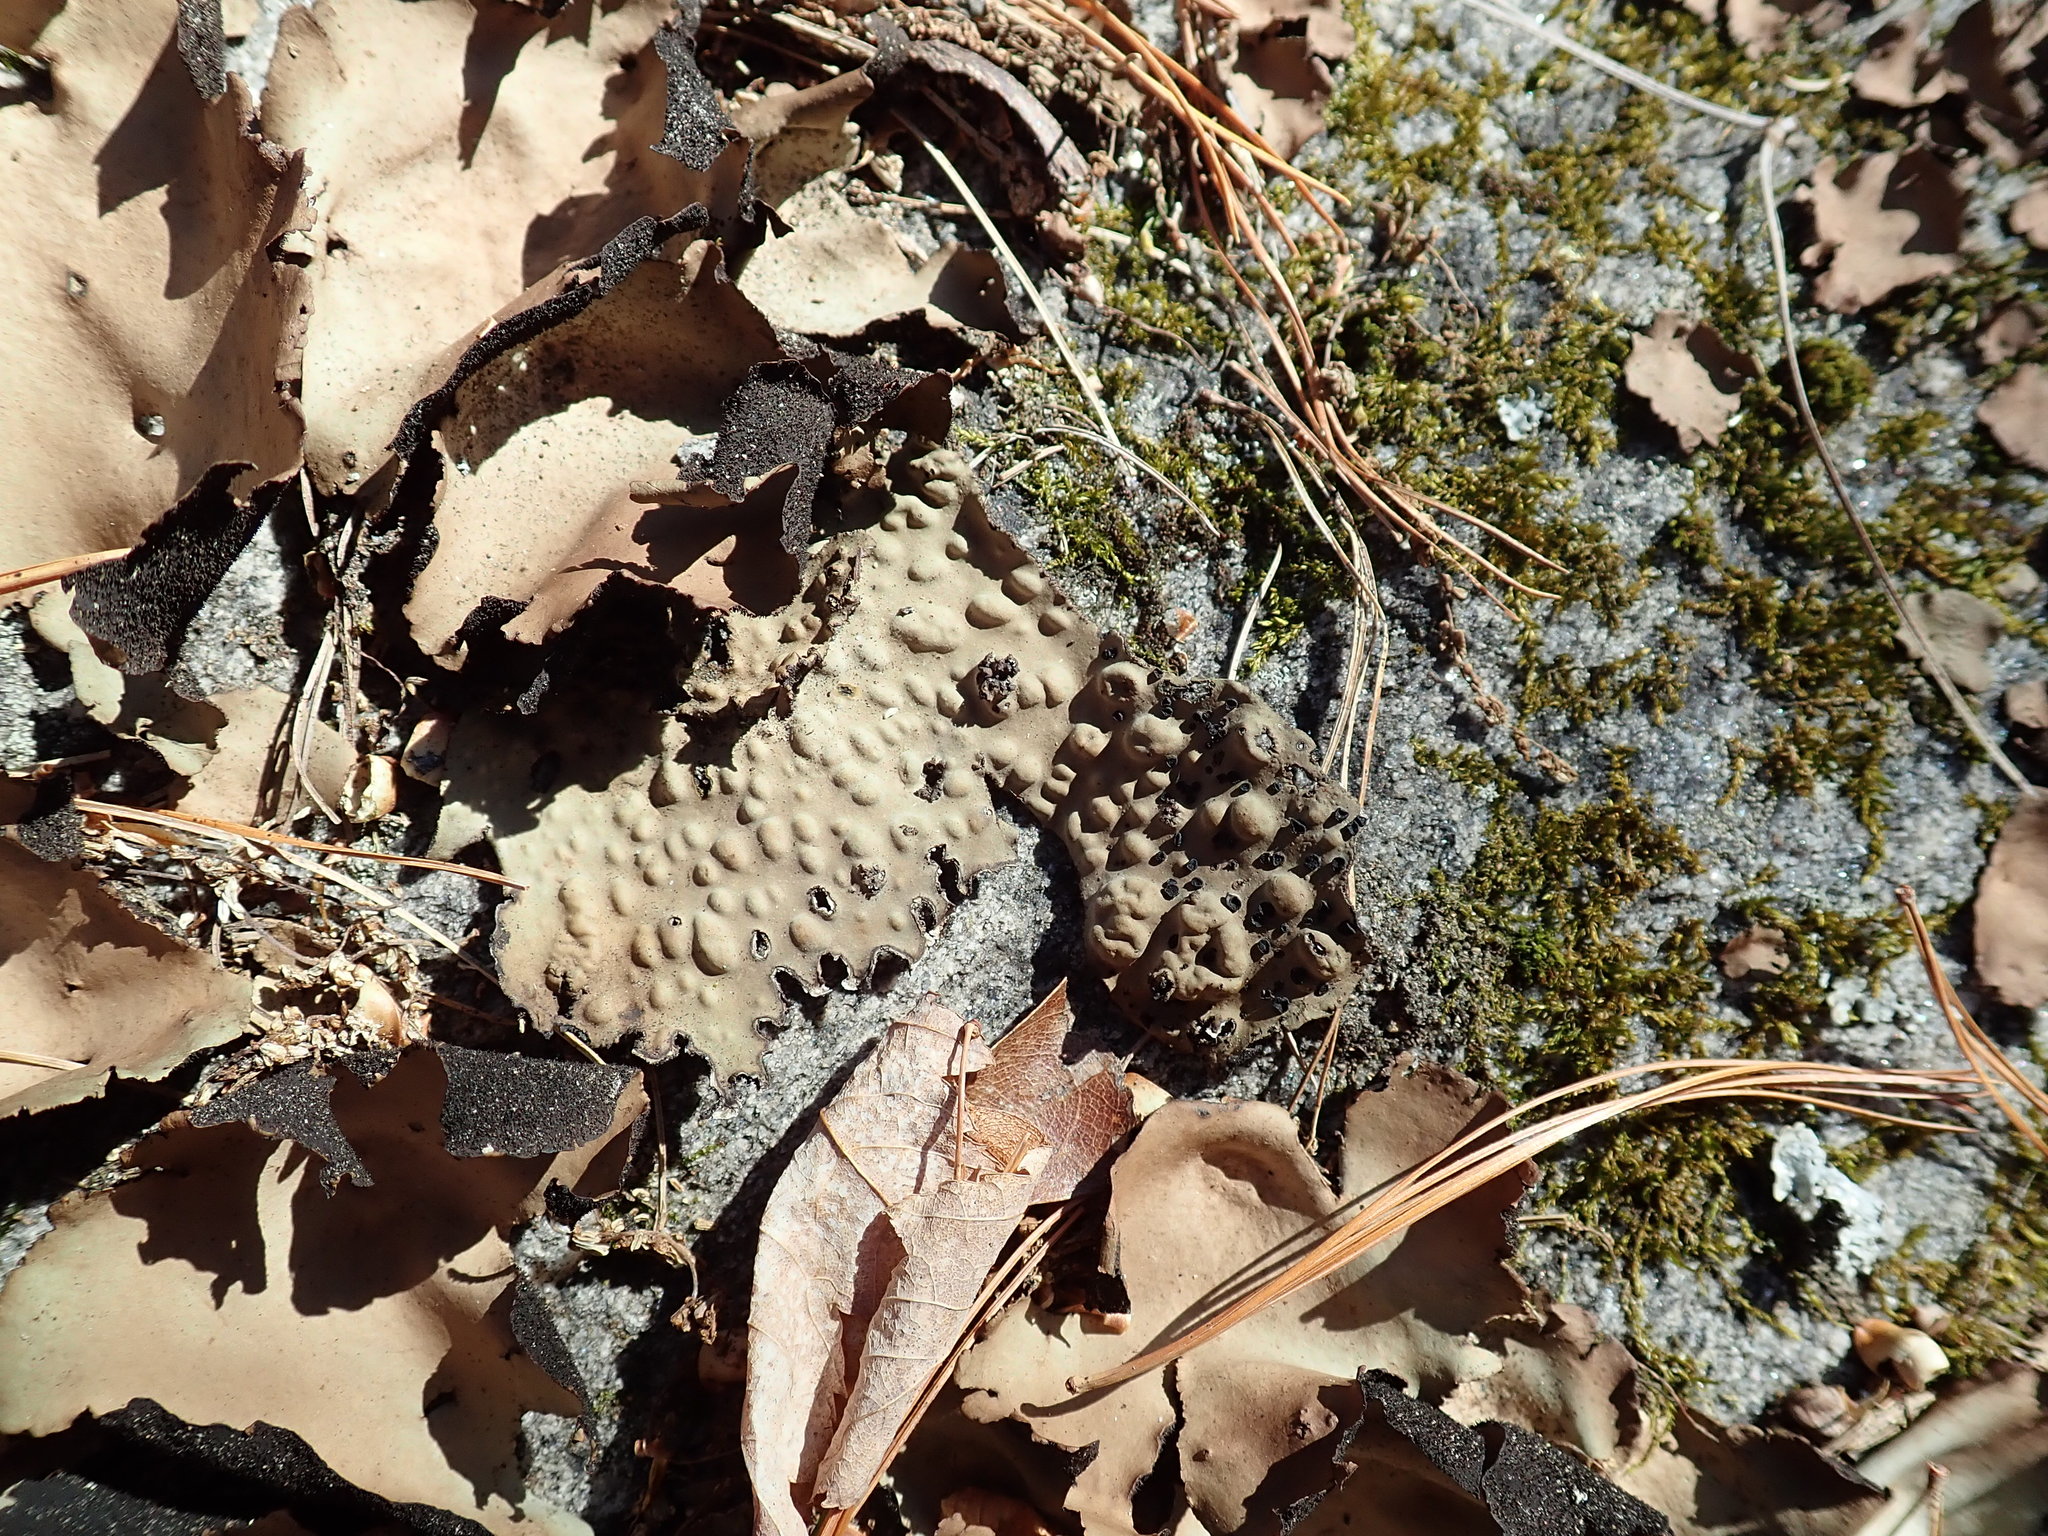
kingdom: Fungi
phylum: Ascomycota
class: Lecanoromycetes
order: Umbilicariales
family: Umbilicariaceae
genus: Lasallia
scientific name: Lasallia papulosa
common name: Common toadskin lichen
